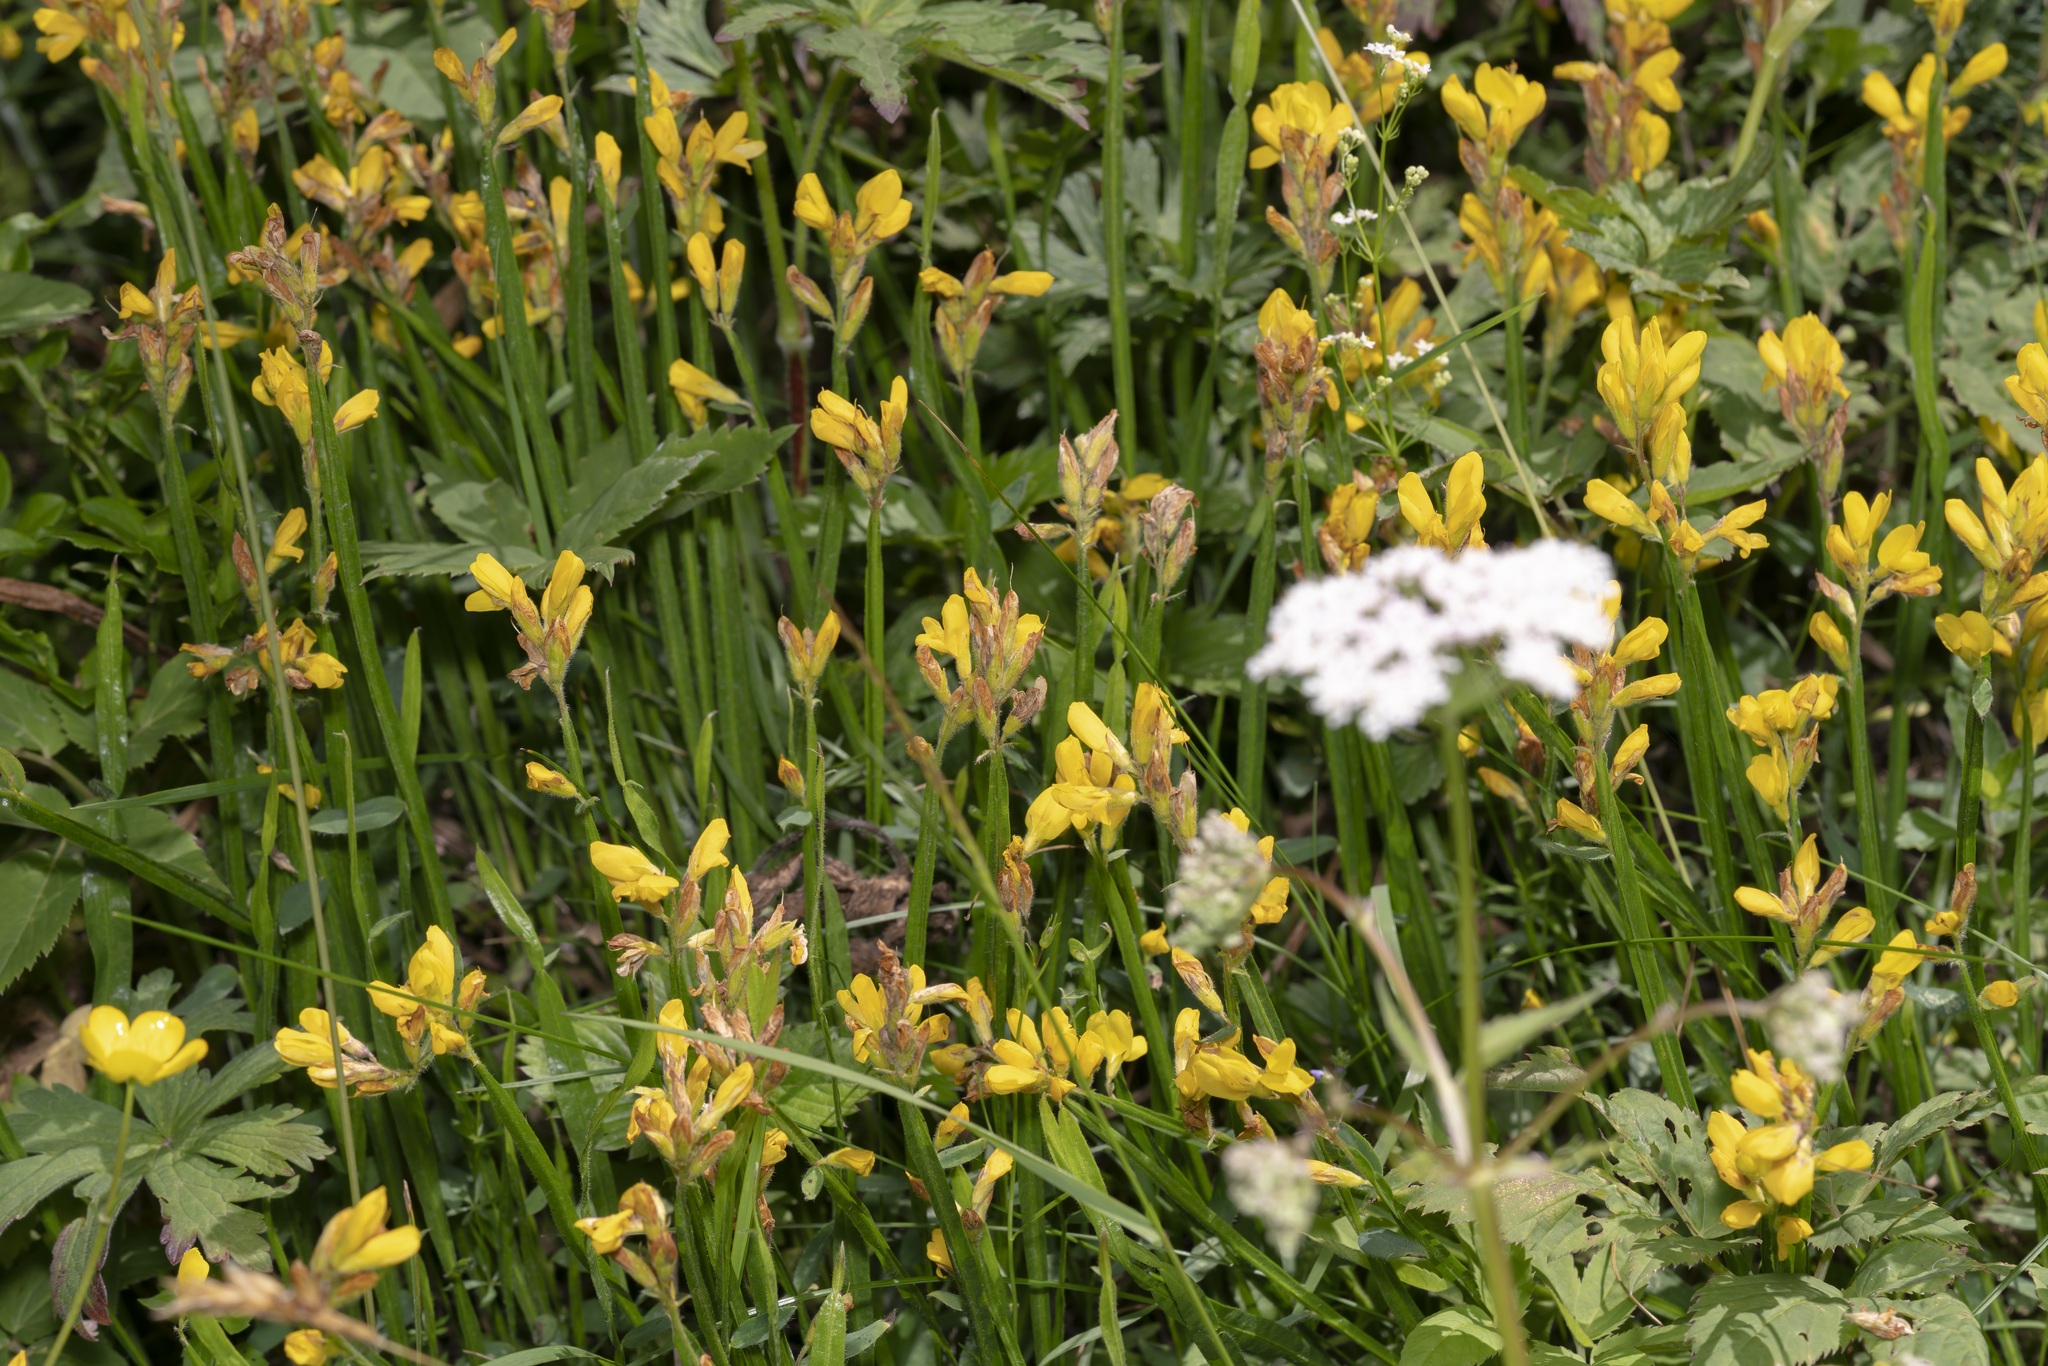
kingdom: Plantae
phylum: Tracheophyta
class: Magnoliopsida
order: Fabales
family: Fabaceae
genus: Genista
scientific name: Genista sagittalis
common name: Winged greenweed
